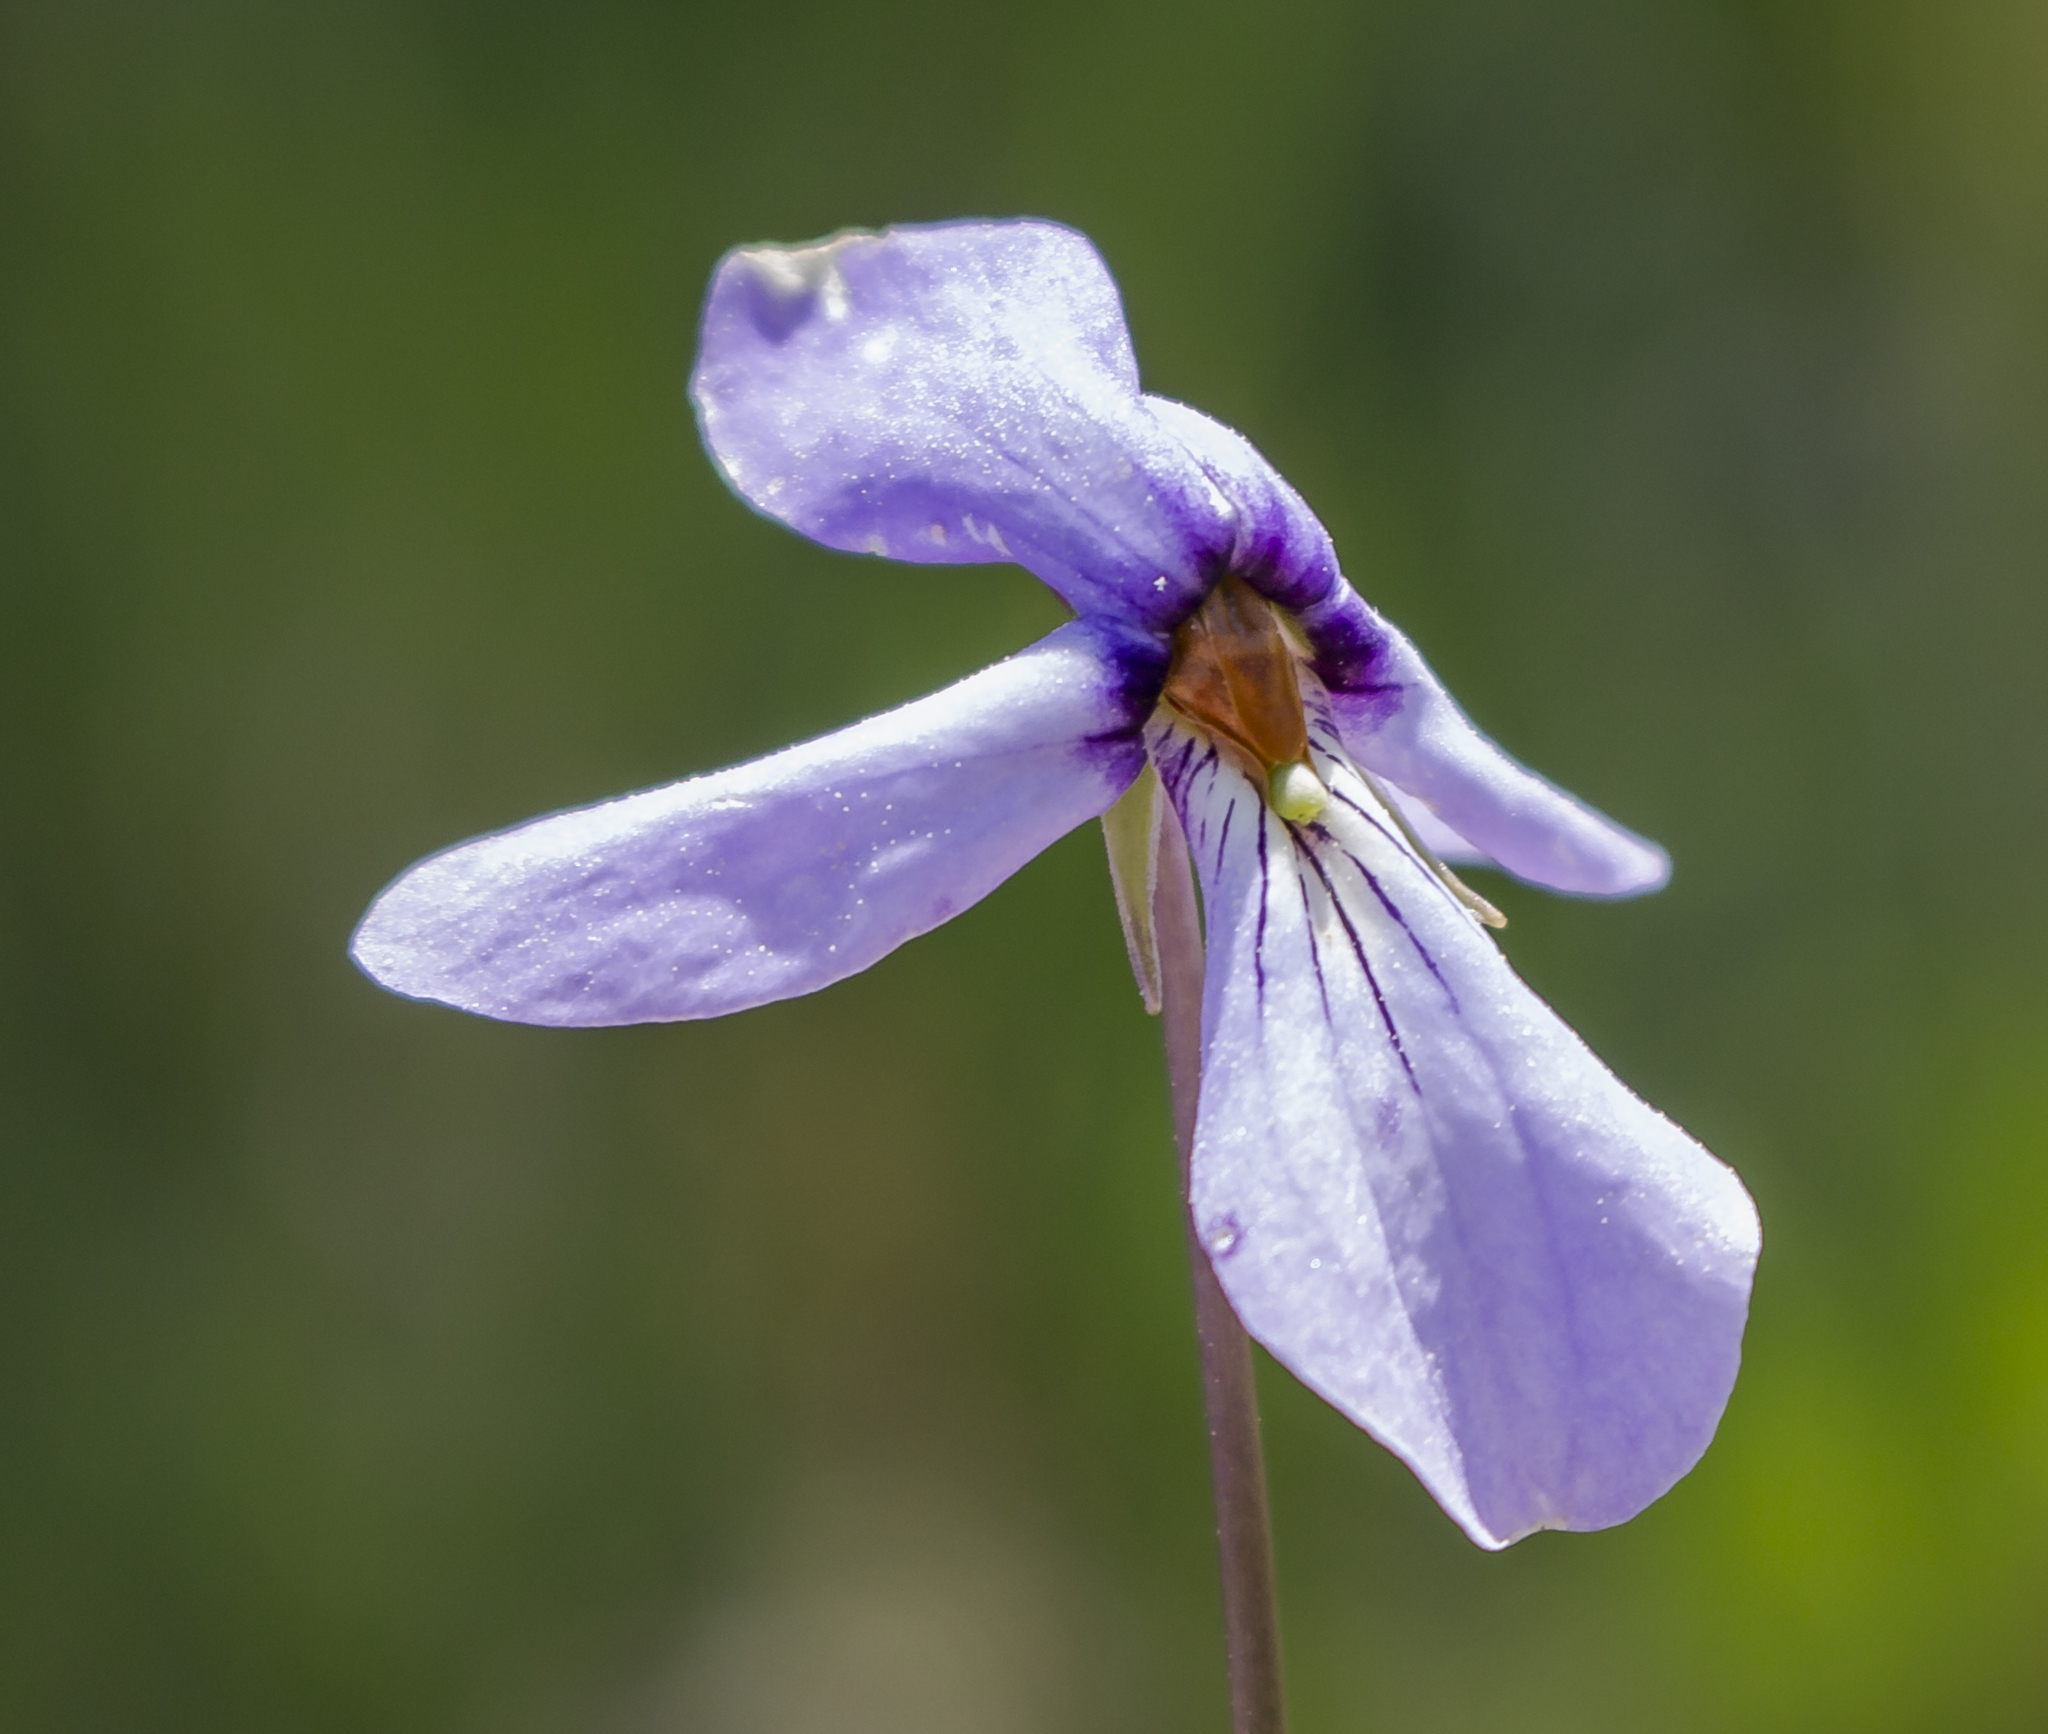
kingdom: Plantae
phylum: Tracheophyta
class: Magnoliopsida
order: Malpighiales
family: Violaceae
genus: Viola
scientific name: Viola pedata
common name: Pansy violet
